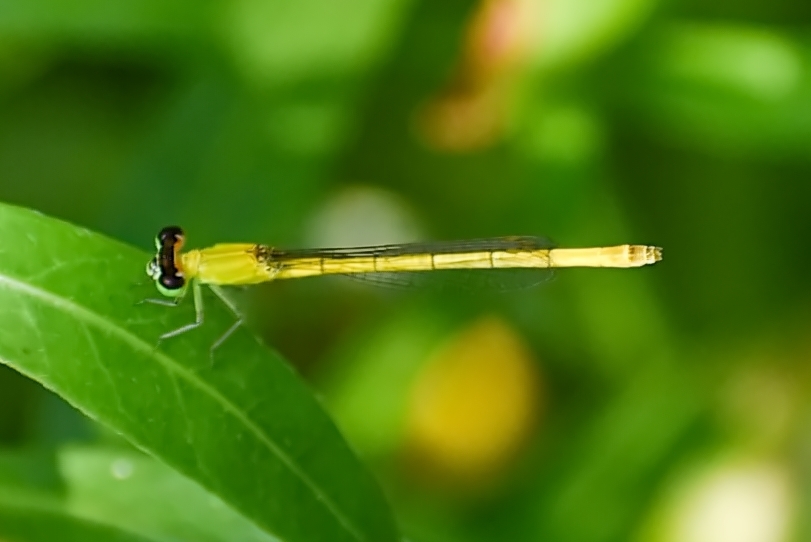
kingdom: Animalia
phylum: Arthropoda
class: Insecta
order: Odonata
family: Coenagrionidae
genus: Agriocnemis
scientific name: Agriocnemis kalinga
